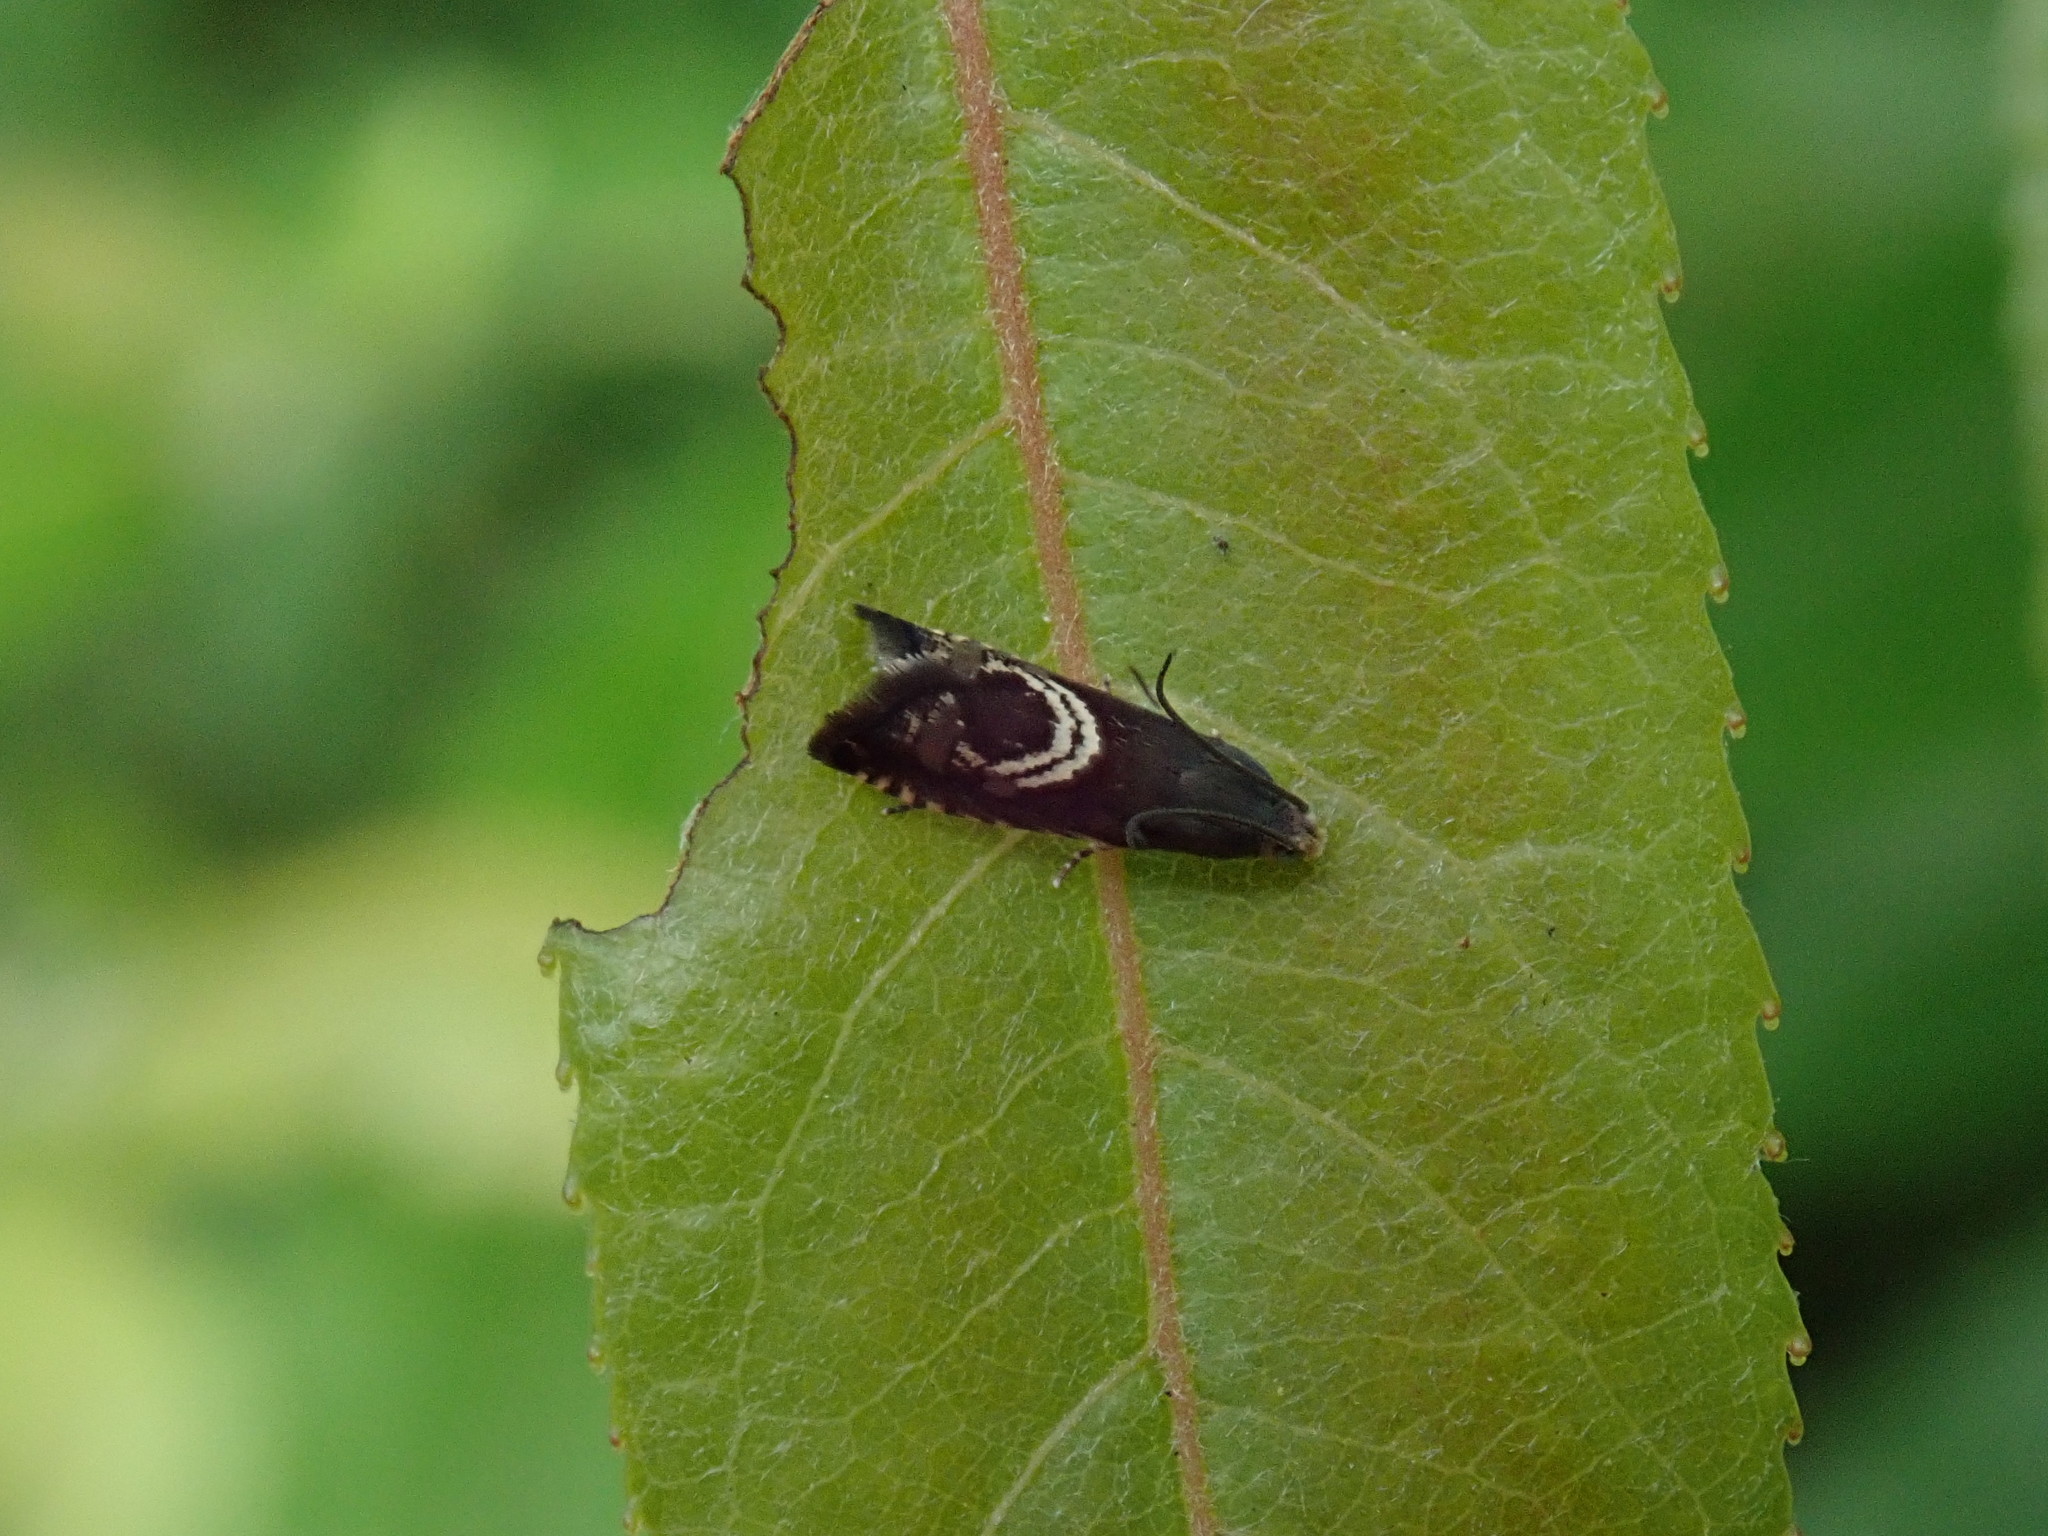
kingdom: Animalia
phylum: Arthropoda
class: Insecta
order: Lepidoptera
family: Tortricidae
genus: Grapholita
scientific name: Grapholita interstinctana
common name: Clover head caterpillar moth
